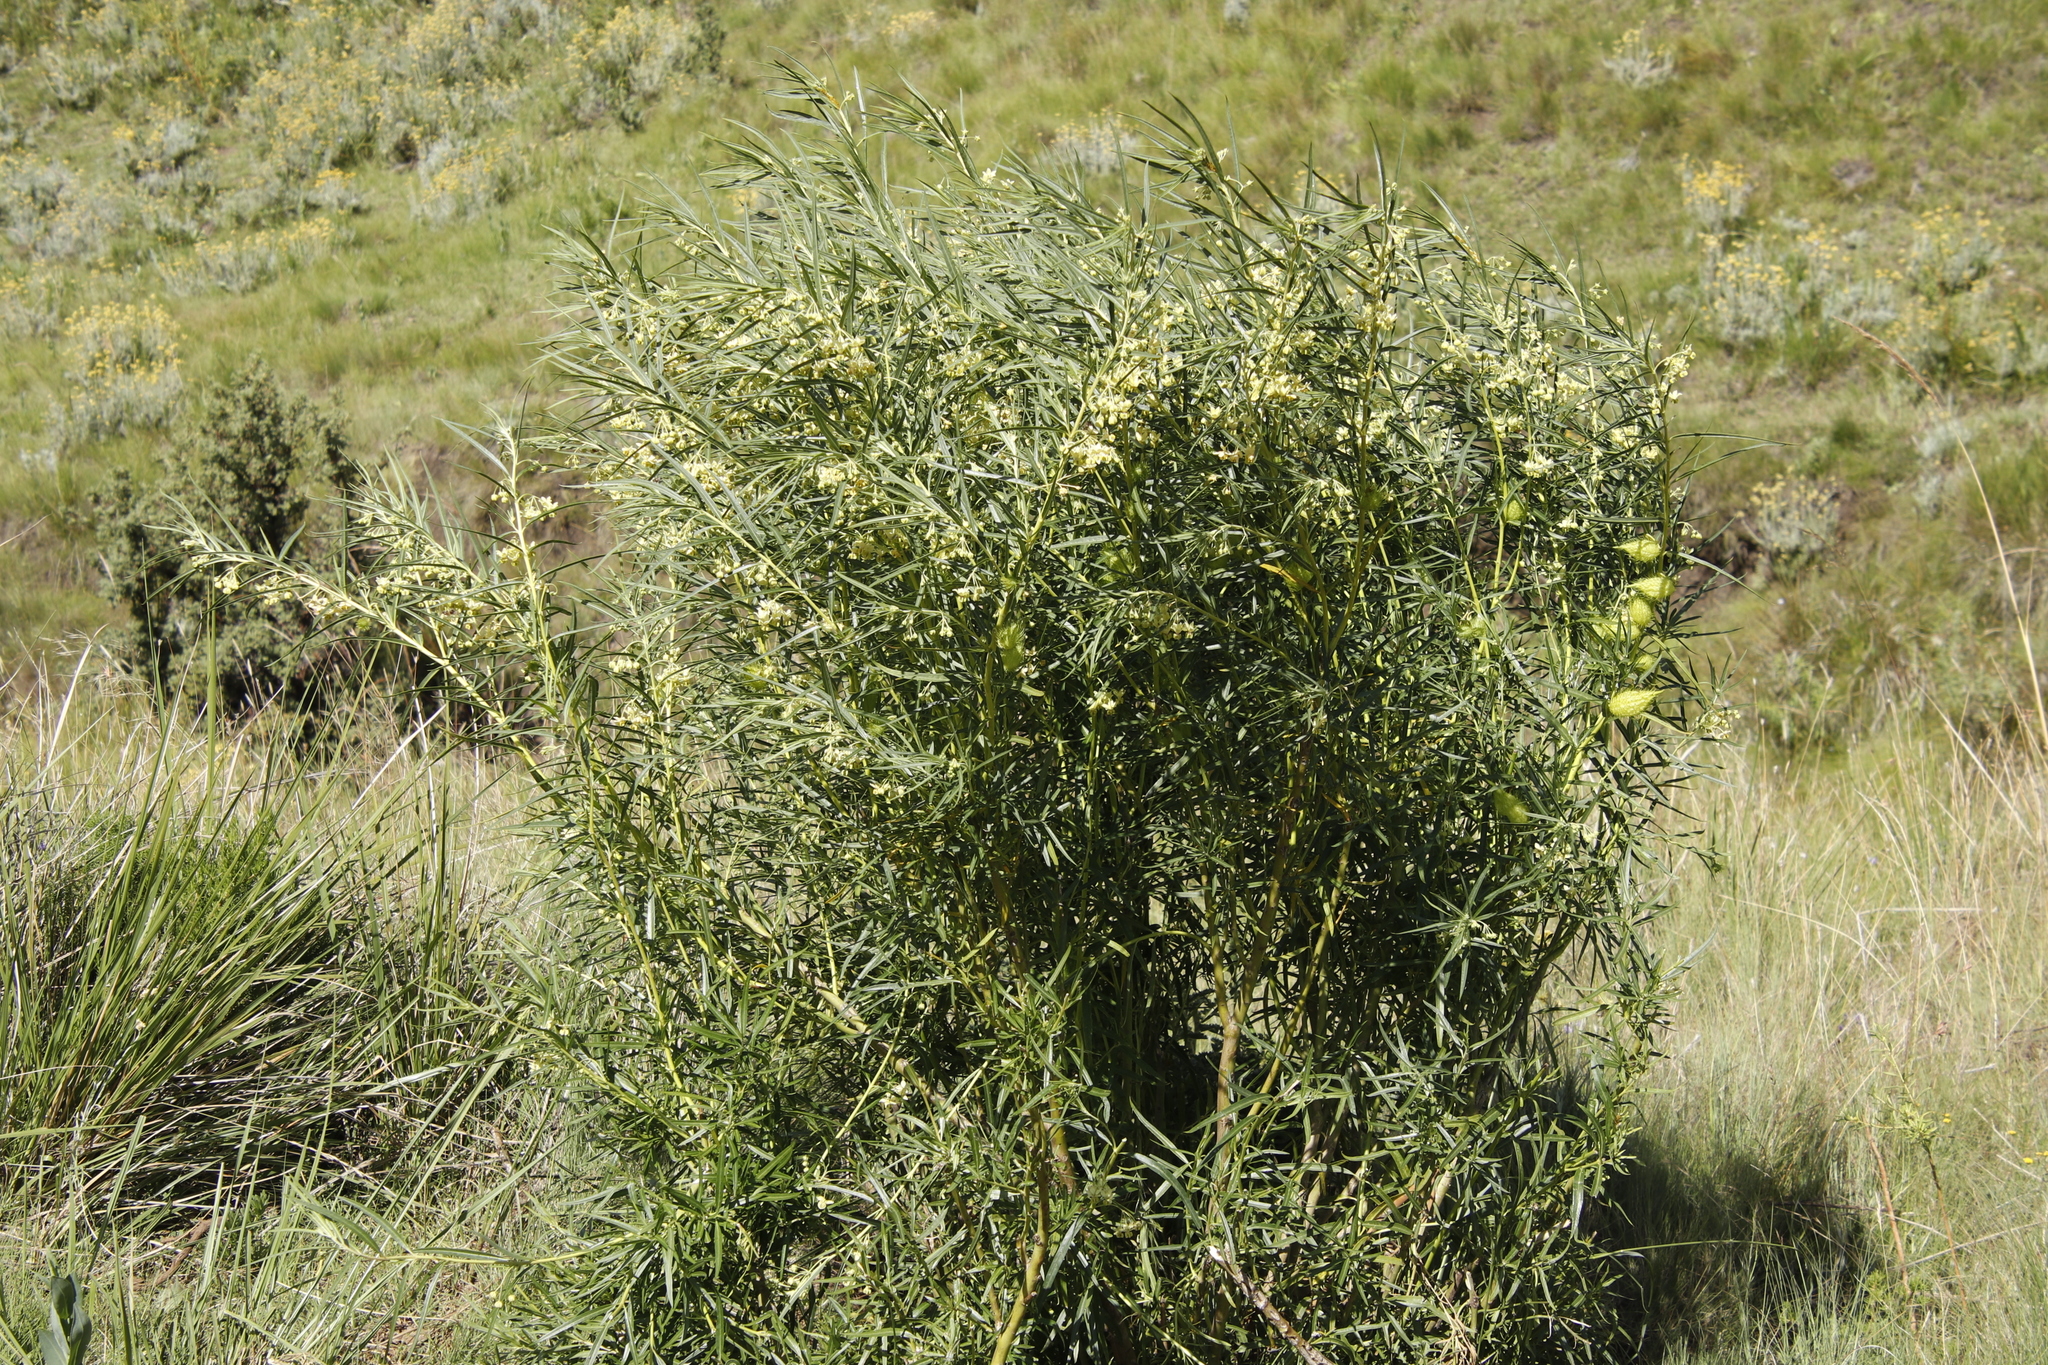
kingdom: Plantae
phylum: Tracheophyta
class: Magnoliopsida
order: Gentianales
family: Apocynaceae
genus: Gomphocarpus
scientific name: Gomphocarpus fruticosus
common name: Milkweed
